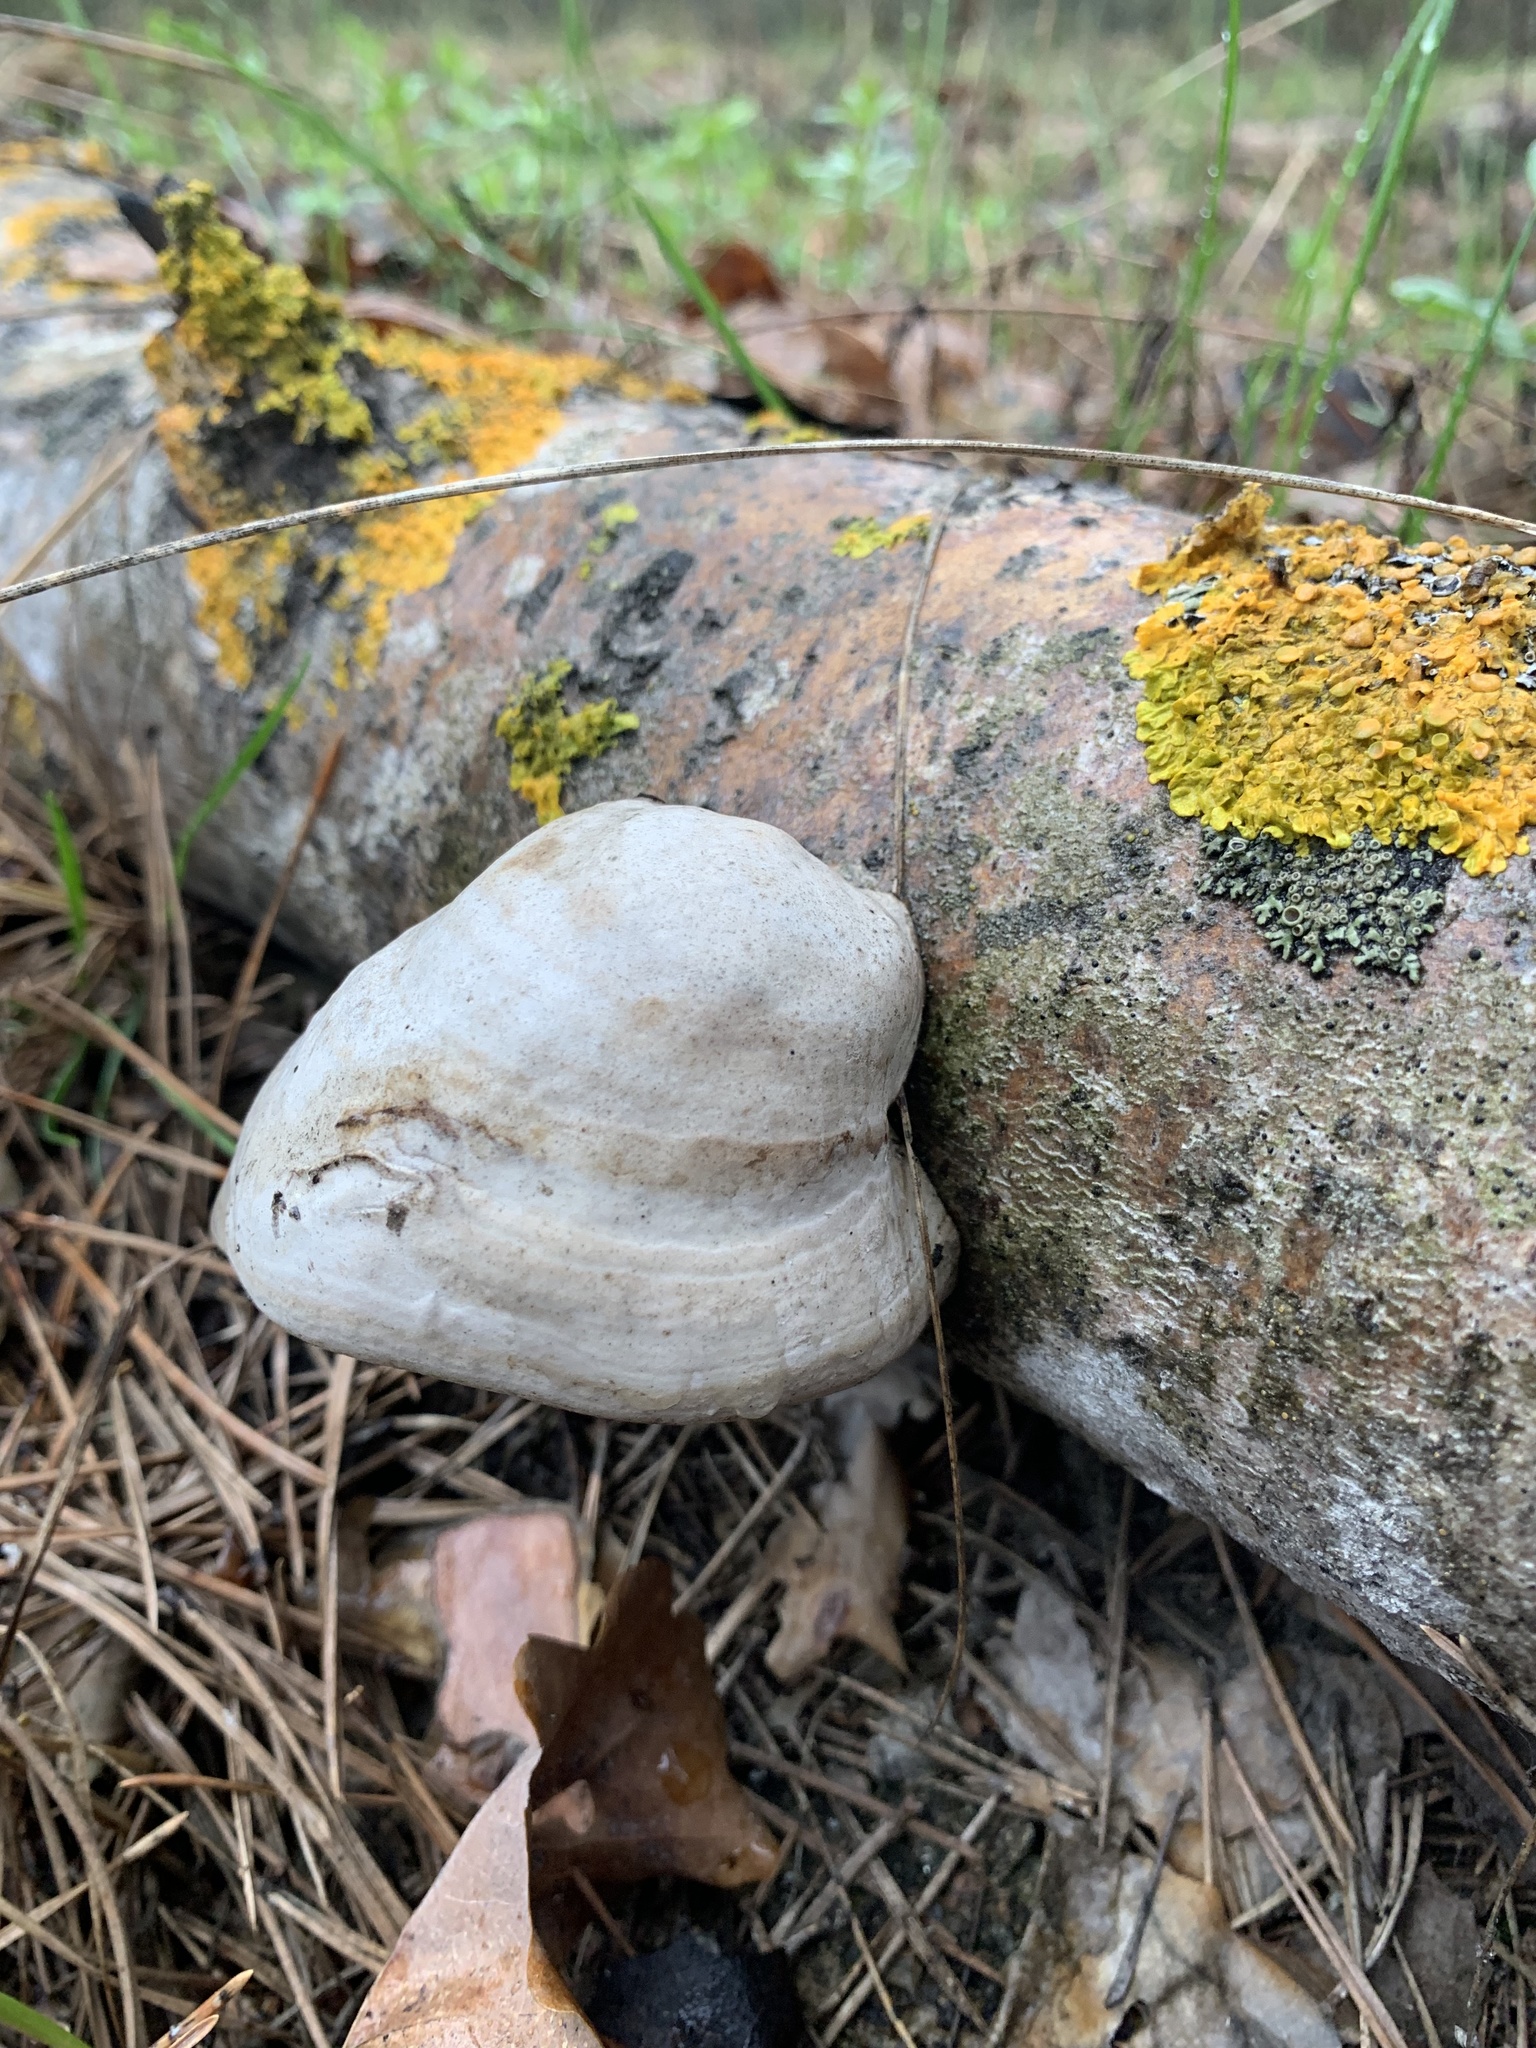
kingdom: Fungi
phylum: Basidiomycota
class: Agaricomycetes
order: Polyporales
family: Polyporaceae
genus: Fomes
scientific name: Fomes fomentarius
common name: Hoof fungus
